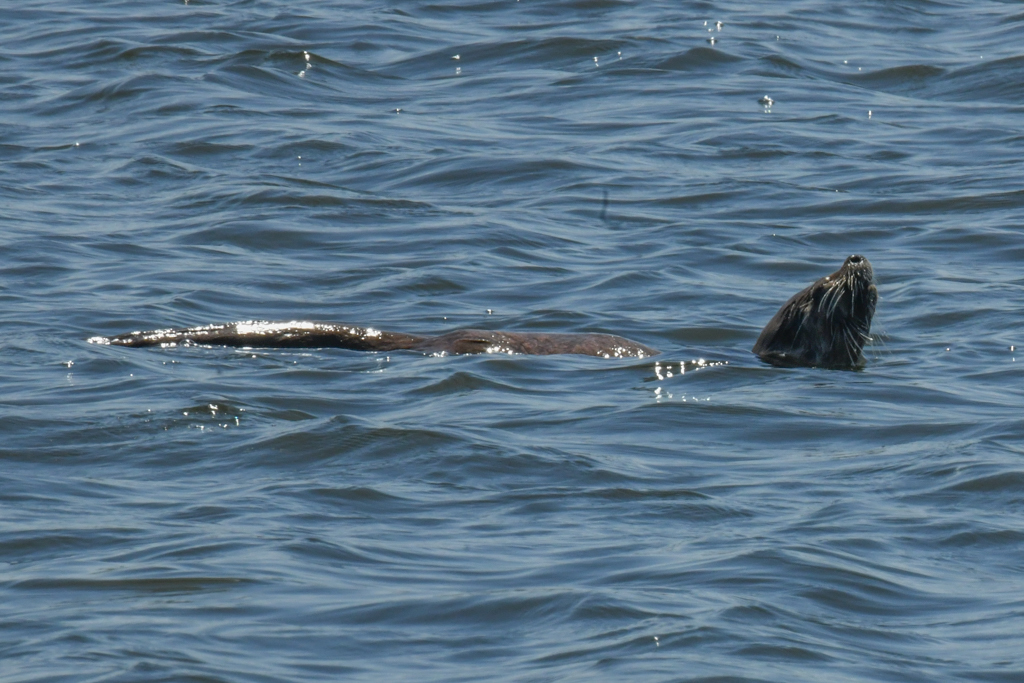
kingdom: Animalia
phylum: Chordata
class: Mammalia
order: Carnivora
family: Mustelidae
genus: Lontra
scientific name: Lontra canadensis
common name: North american river otter
